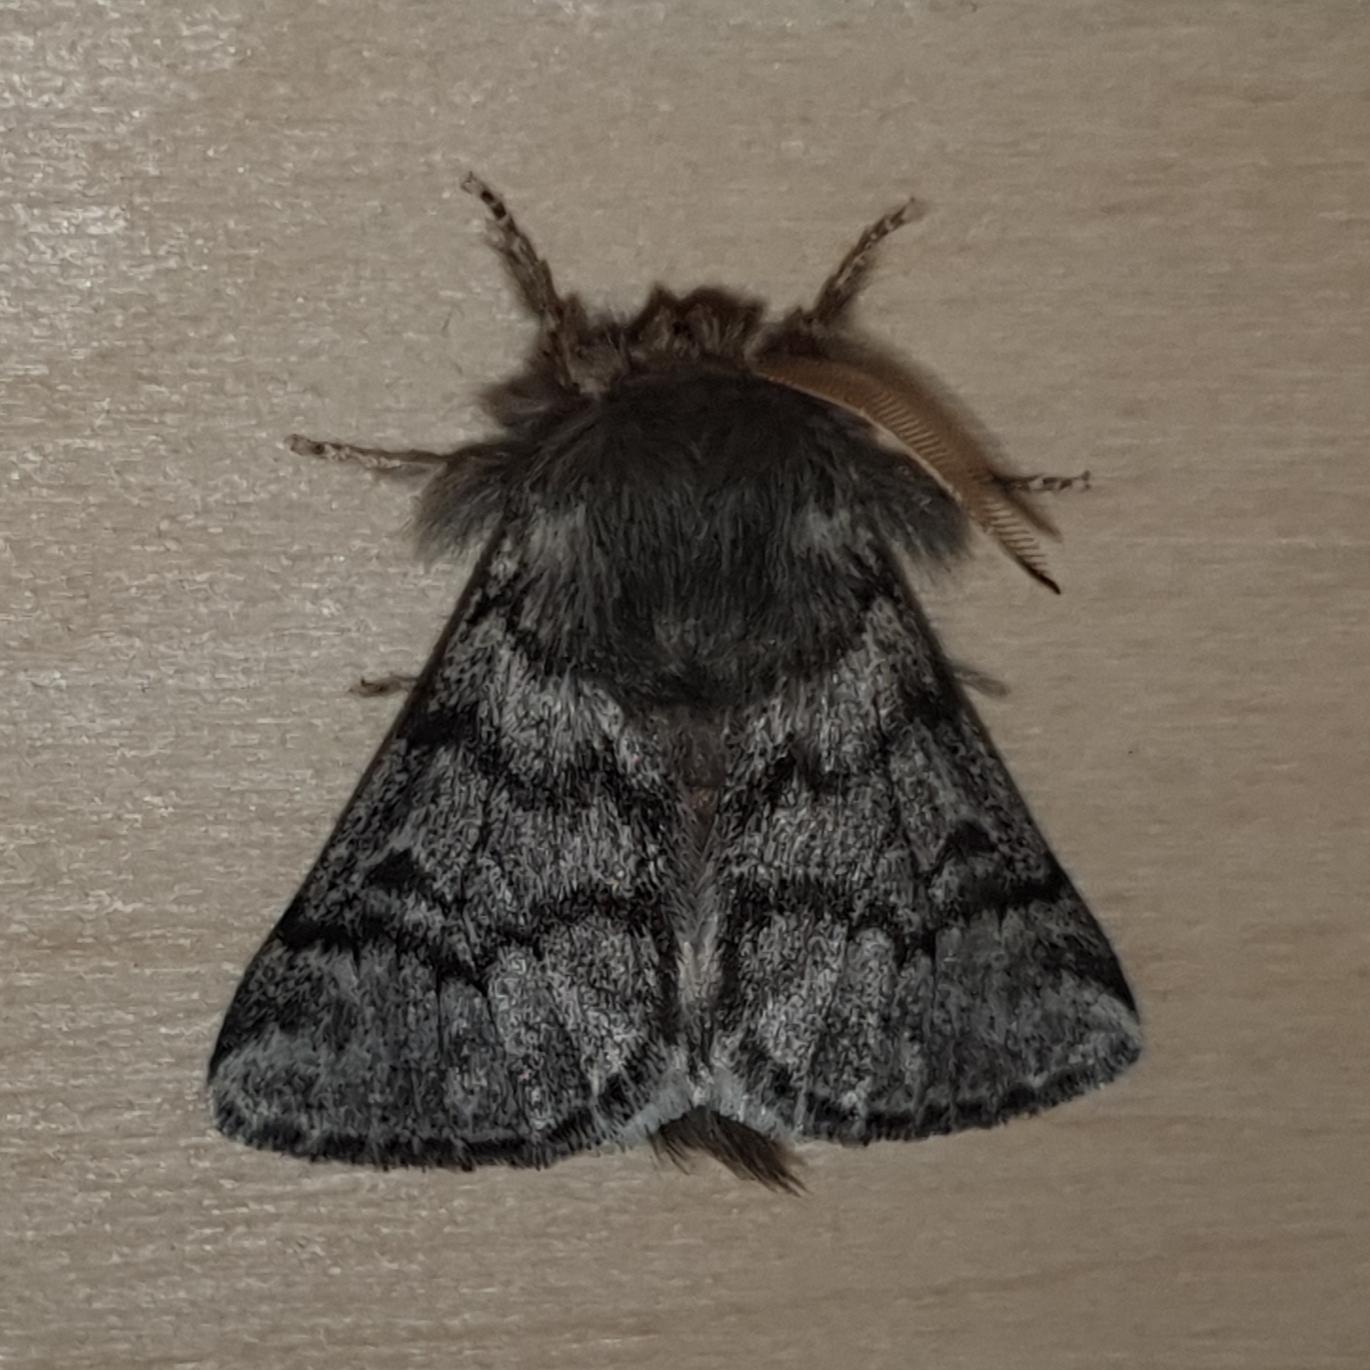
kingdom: Animalia
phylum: Arthropoda
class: Insecta
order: Lepidoptera
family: Notodontidae
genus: Thaumetopoea
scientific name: Thaumetopoea pityocampa
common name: Pine processionary
